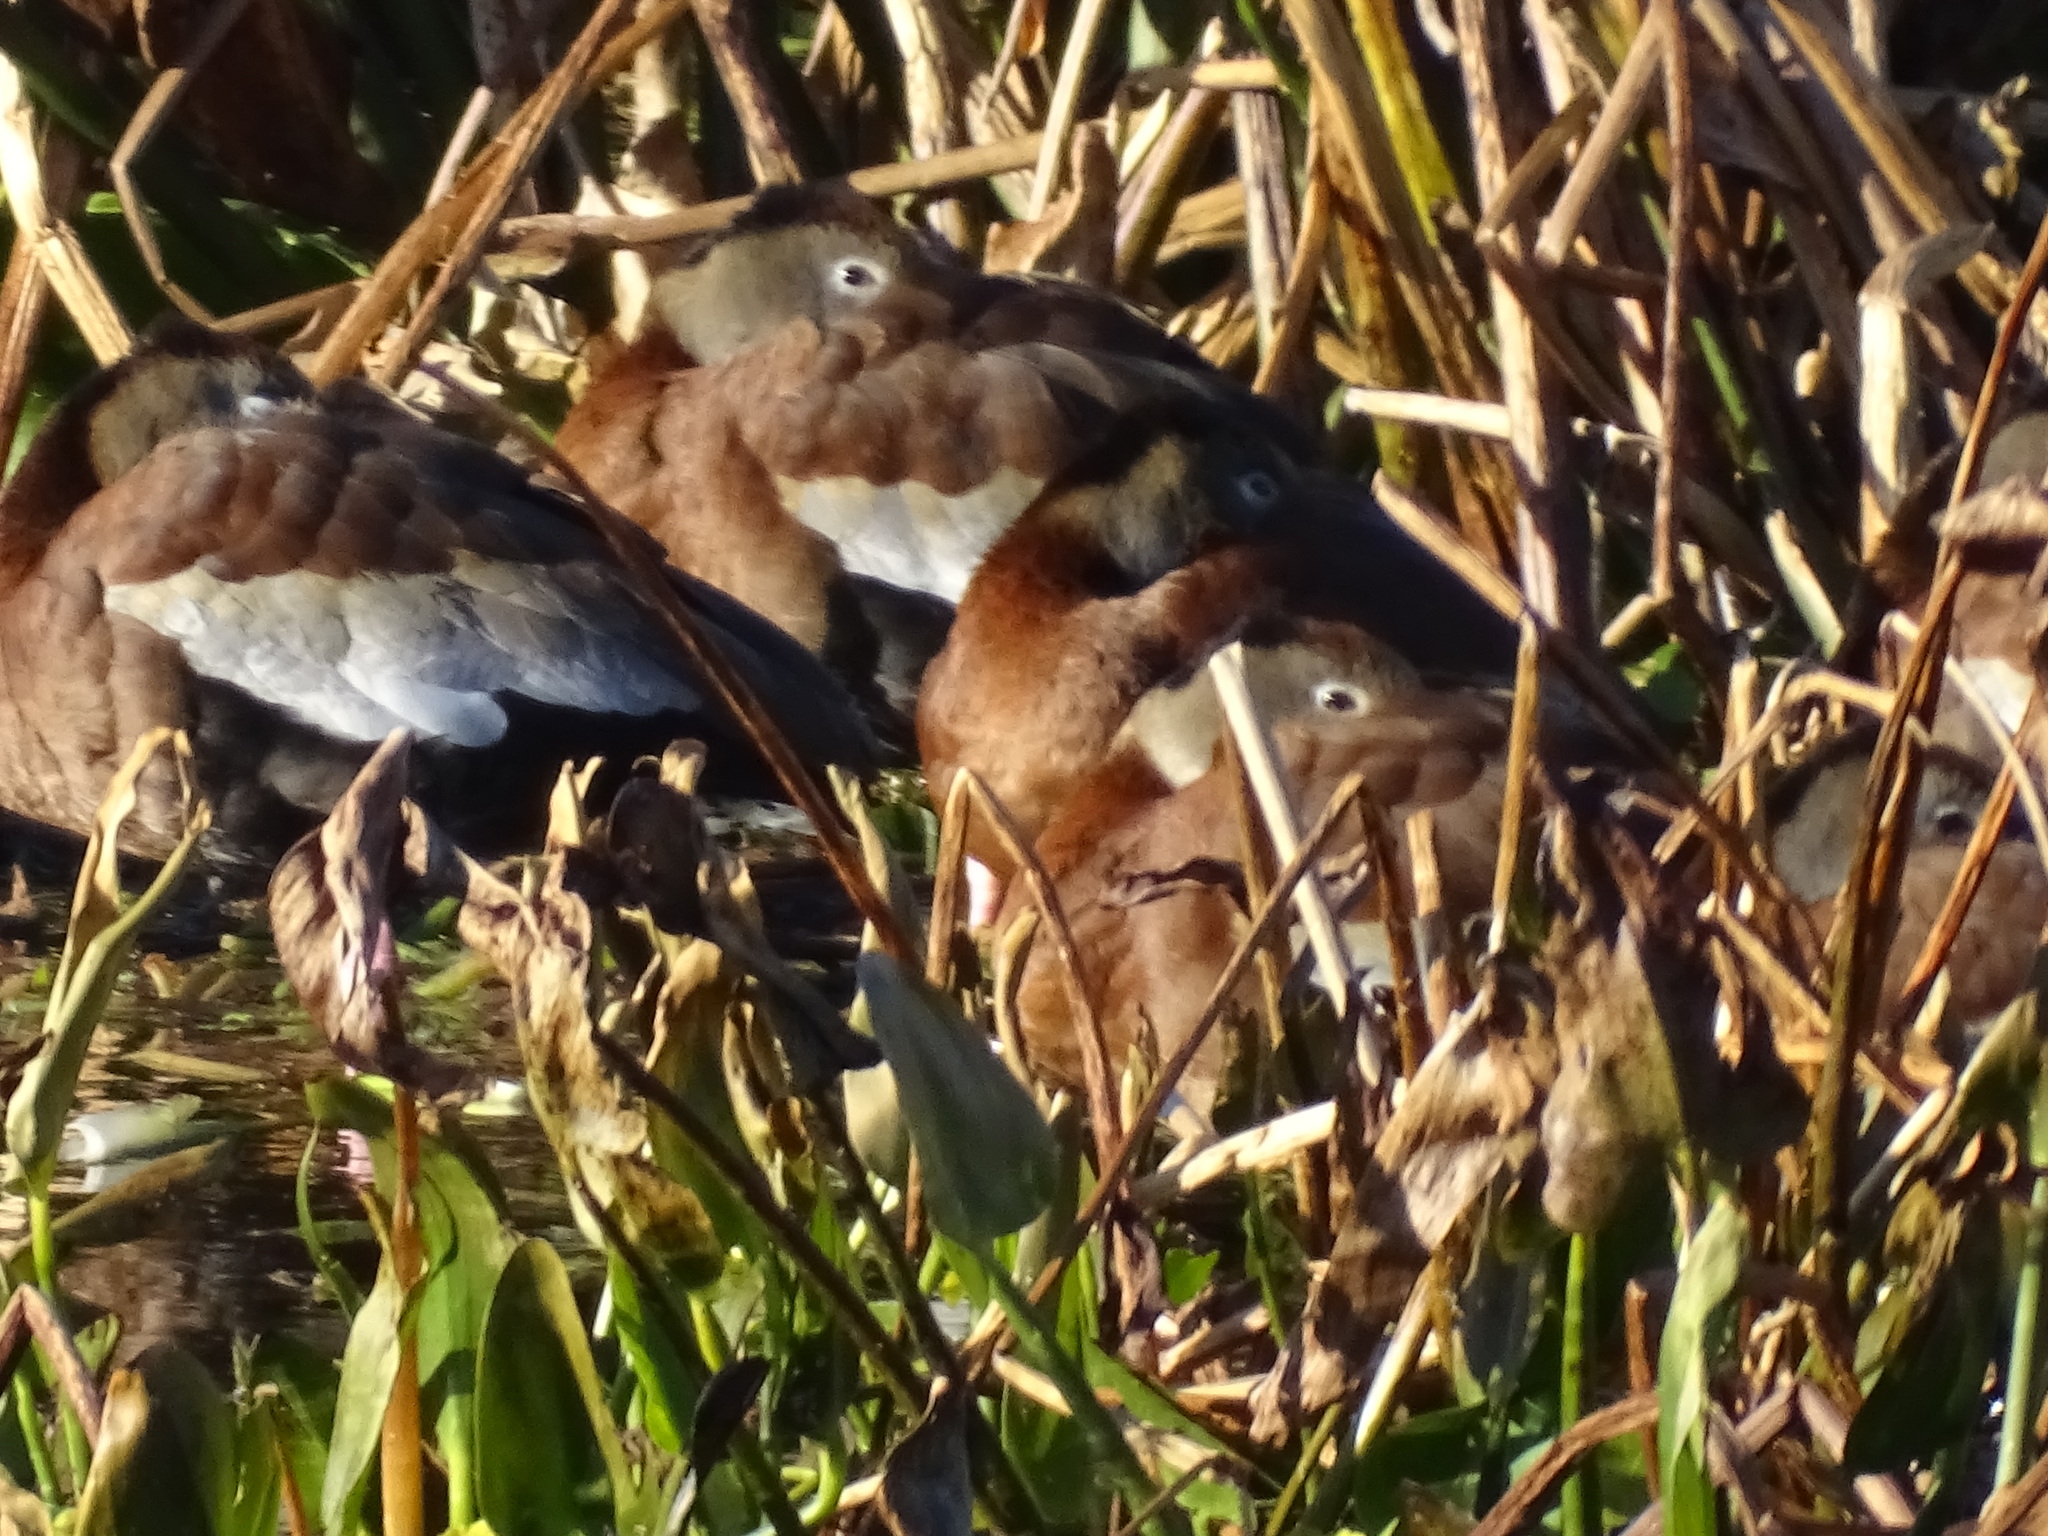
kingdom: Animalia
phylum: Chordata
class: Aves
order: Anseriformes
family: Anatidae
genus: Dendrocygna
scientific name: Dendrocygna autumnalis
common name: Black-bellied whistling duck
